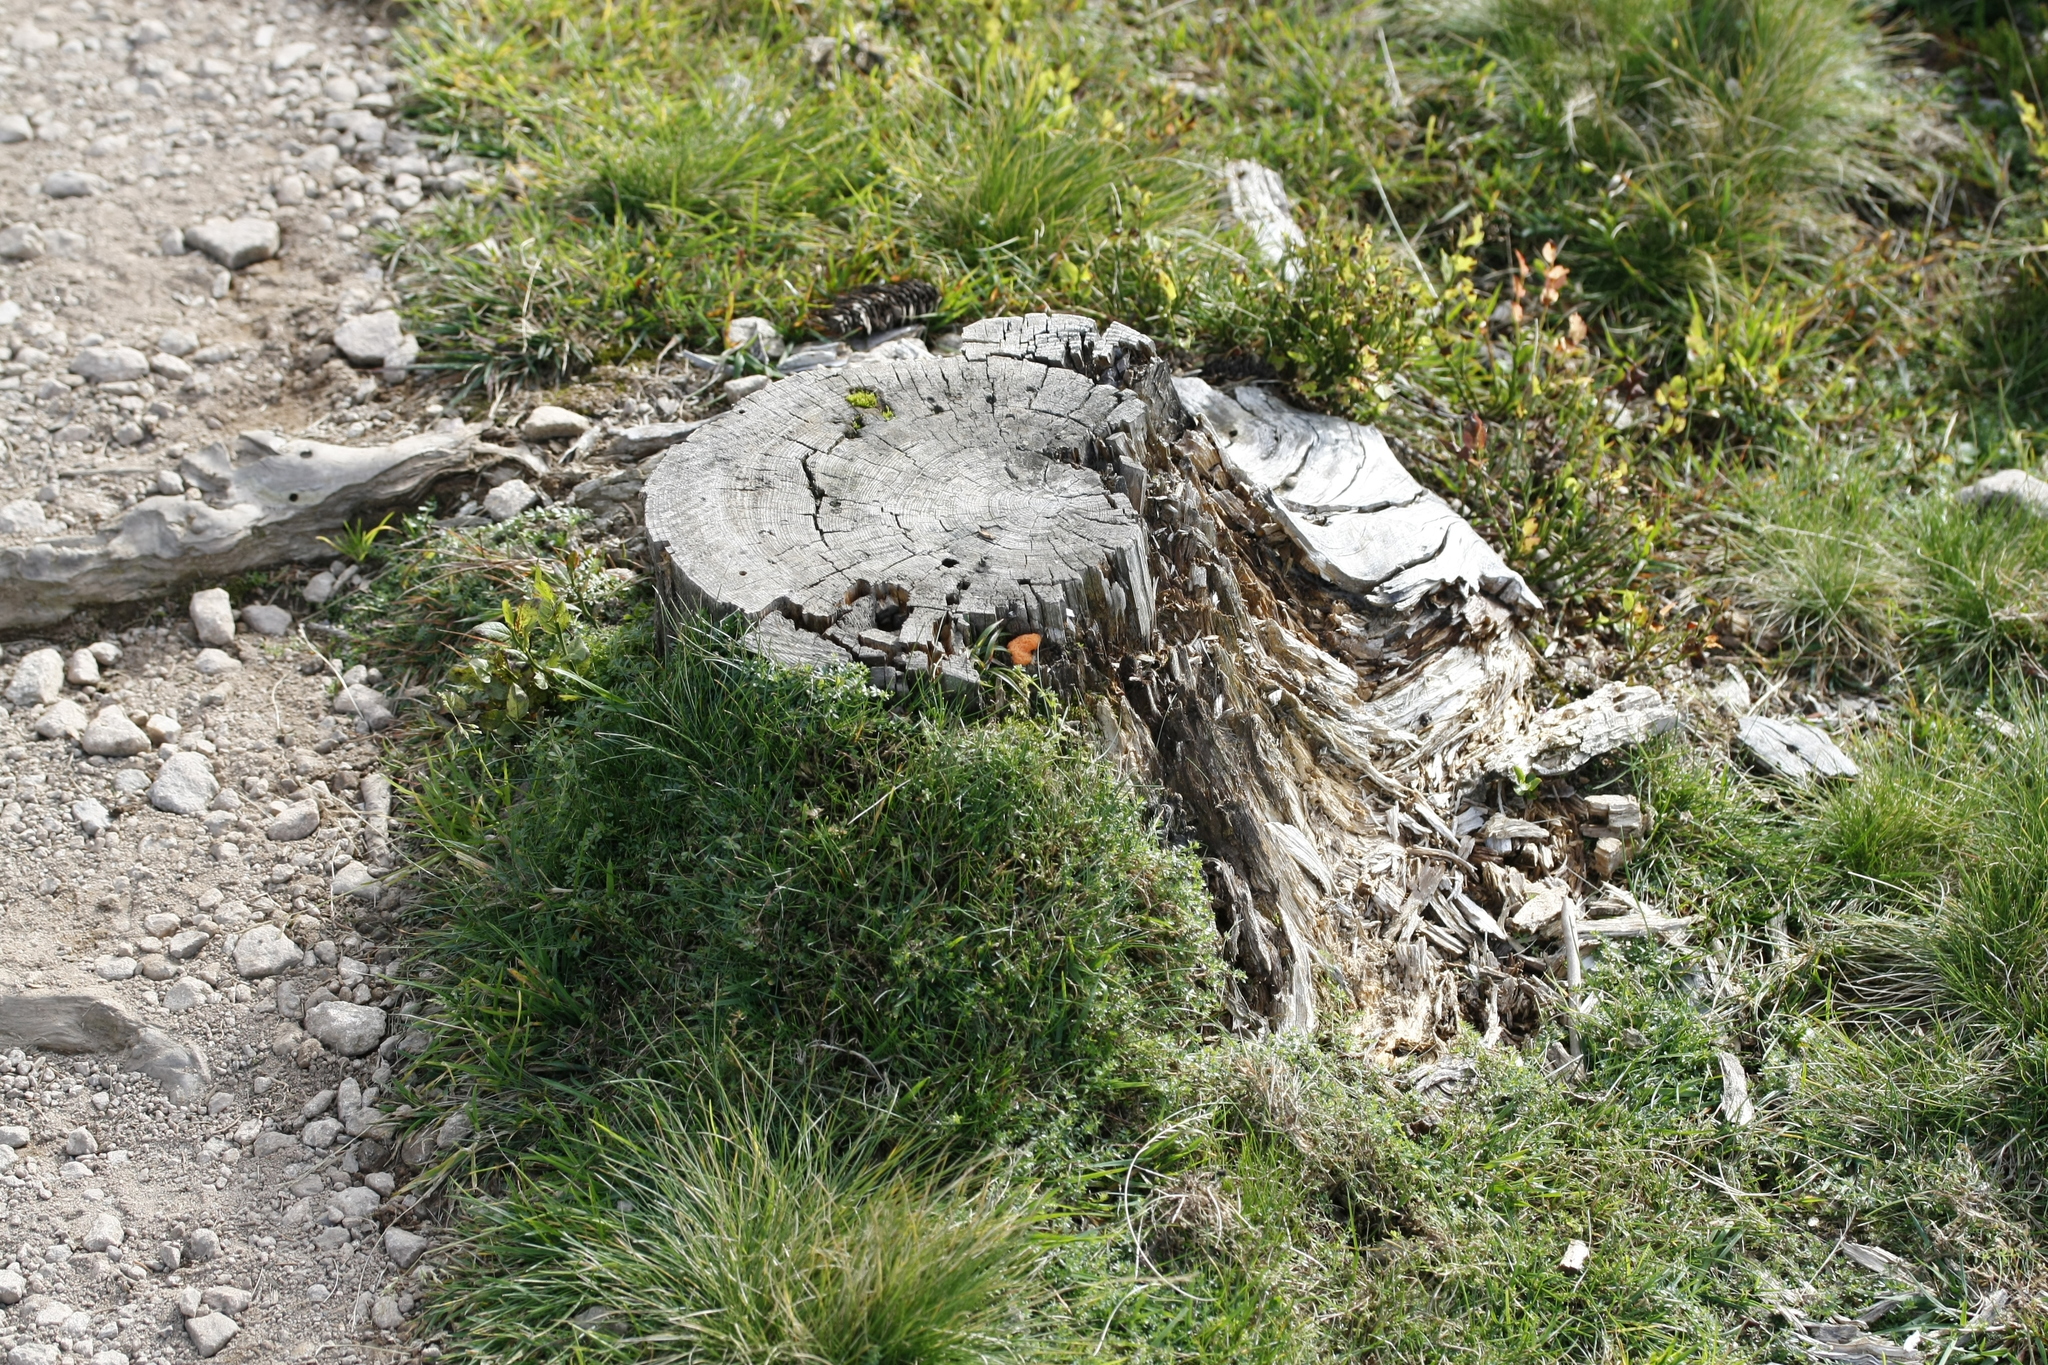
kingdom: Protozoa
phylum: Mycetozoa
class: Myxomycetes
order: Cribrariales
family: Tubiferaceae
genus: Tubifera
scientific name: Tubifera ferruginosa
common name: Red raspberry slime mold
